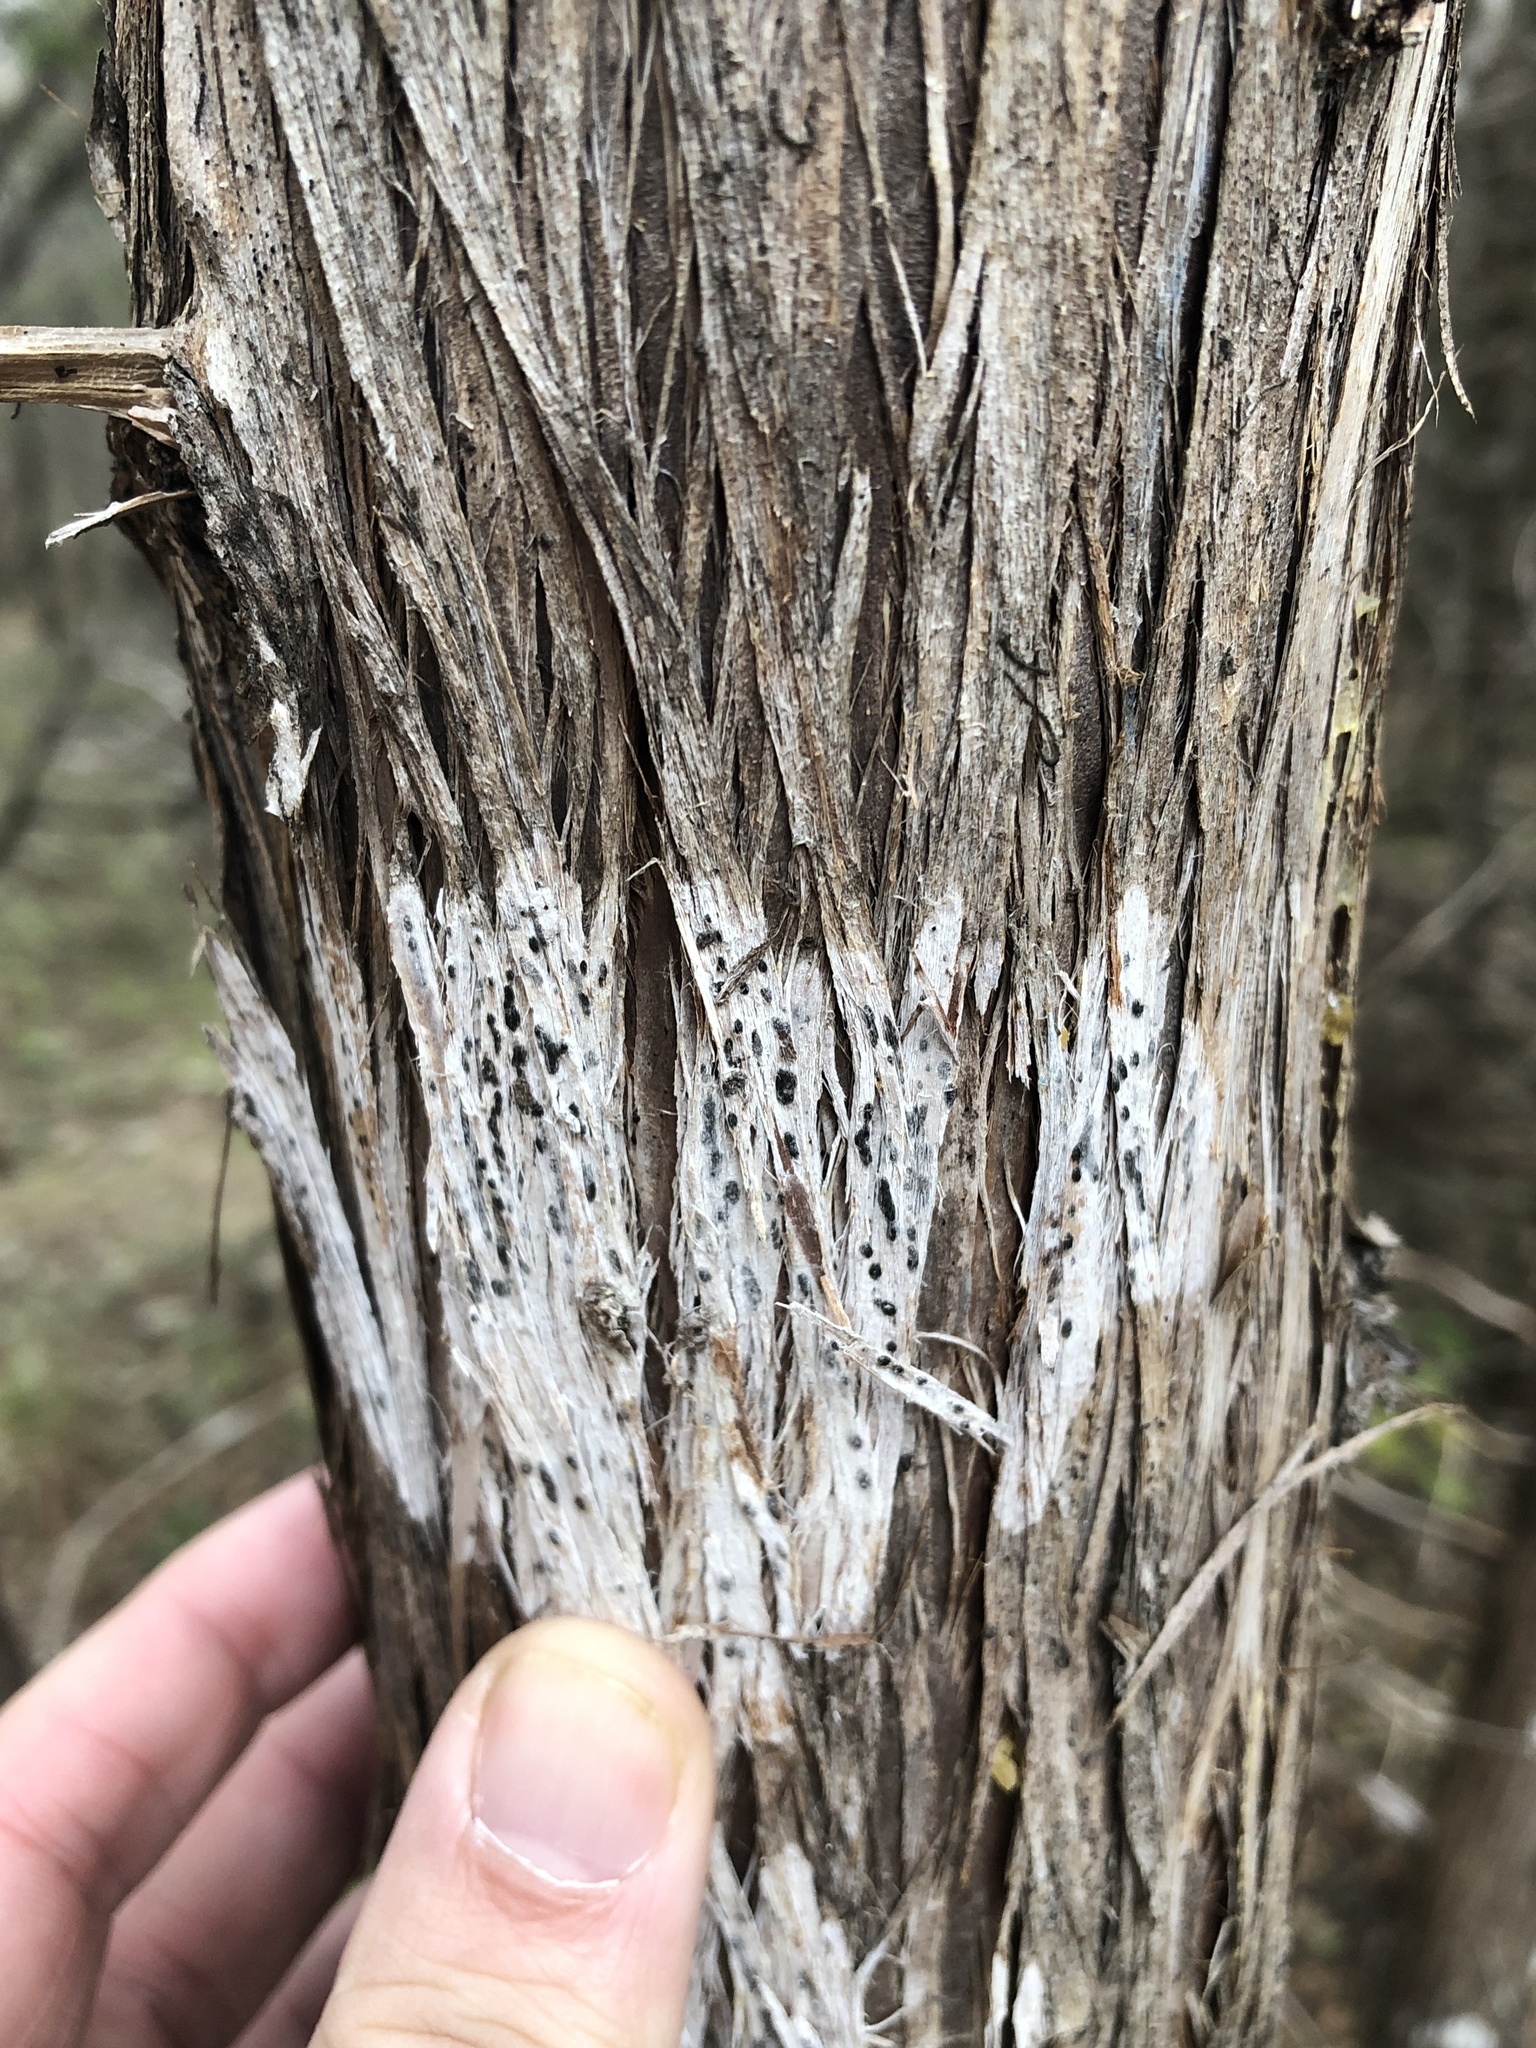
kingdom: Fungi
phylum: Ascomycota
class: Lecanoromycetes
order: Ostropales
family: Stictidaceae
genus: Robergea
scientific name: Robergea
